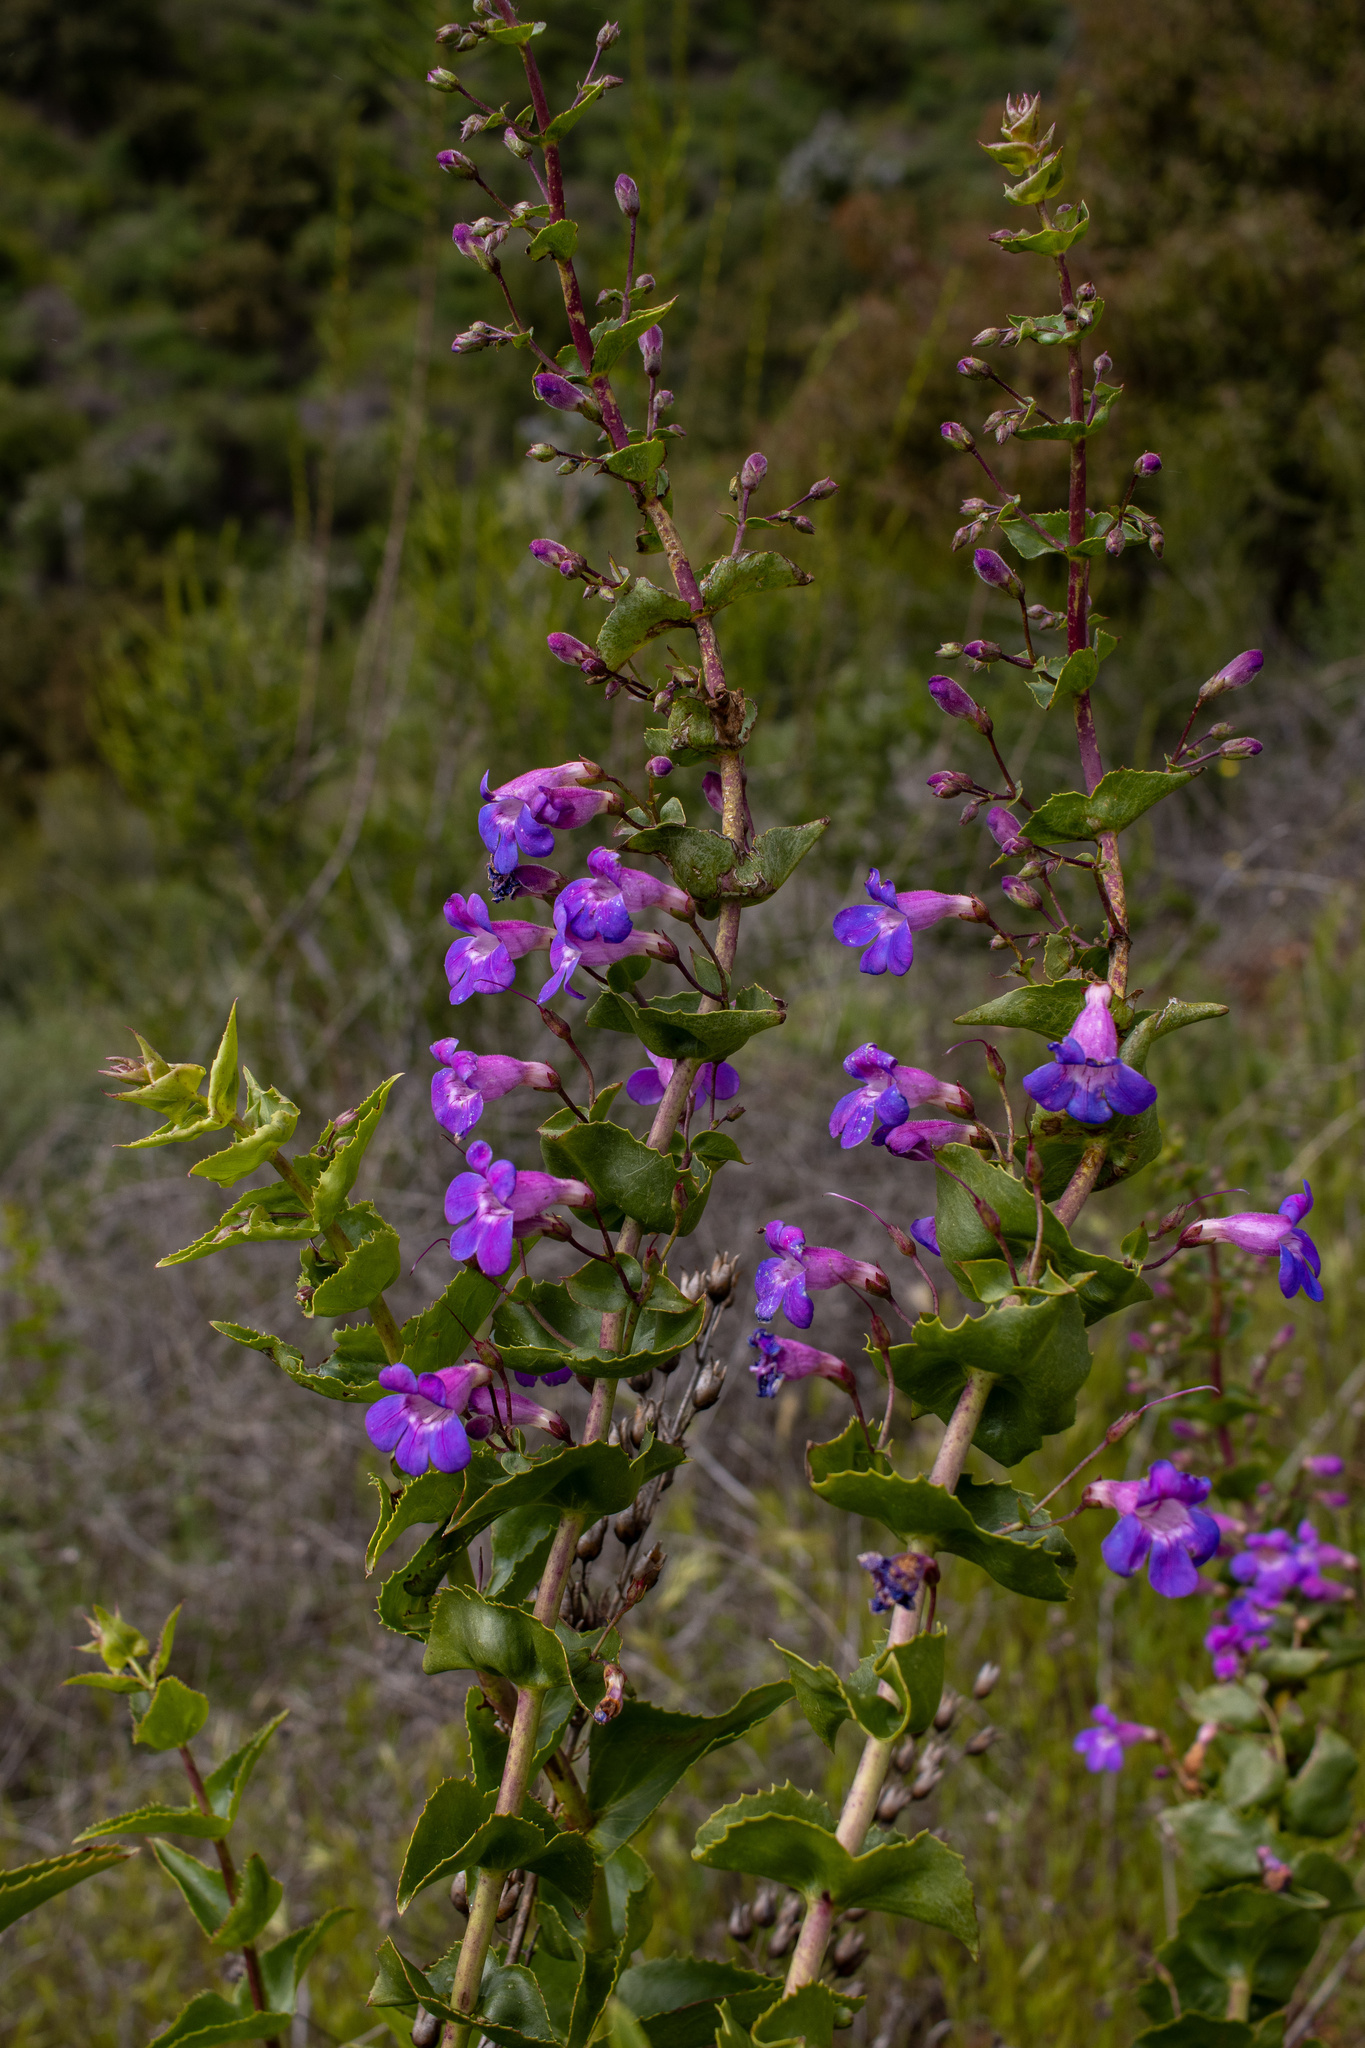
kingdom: Plantae
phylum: Tracheophyta
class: Magnoliopsida
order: Lamiales
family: Plantaginaceae
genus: Penstemon
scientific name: Penstemon spectabilis
